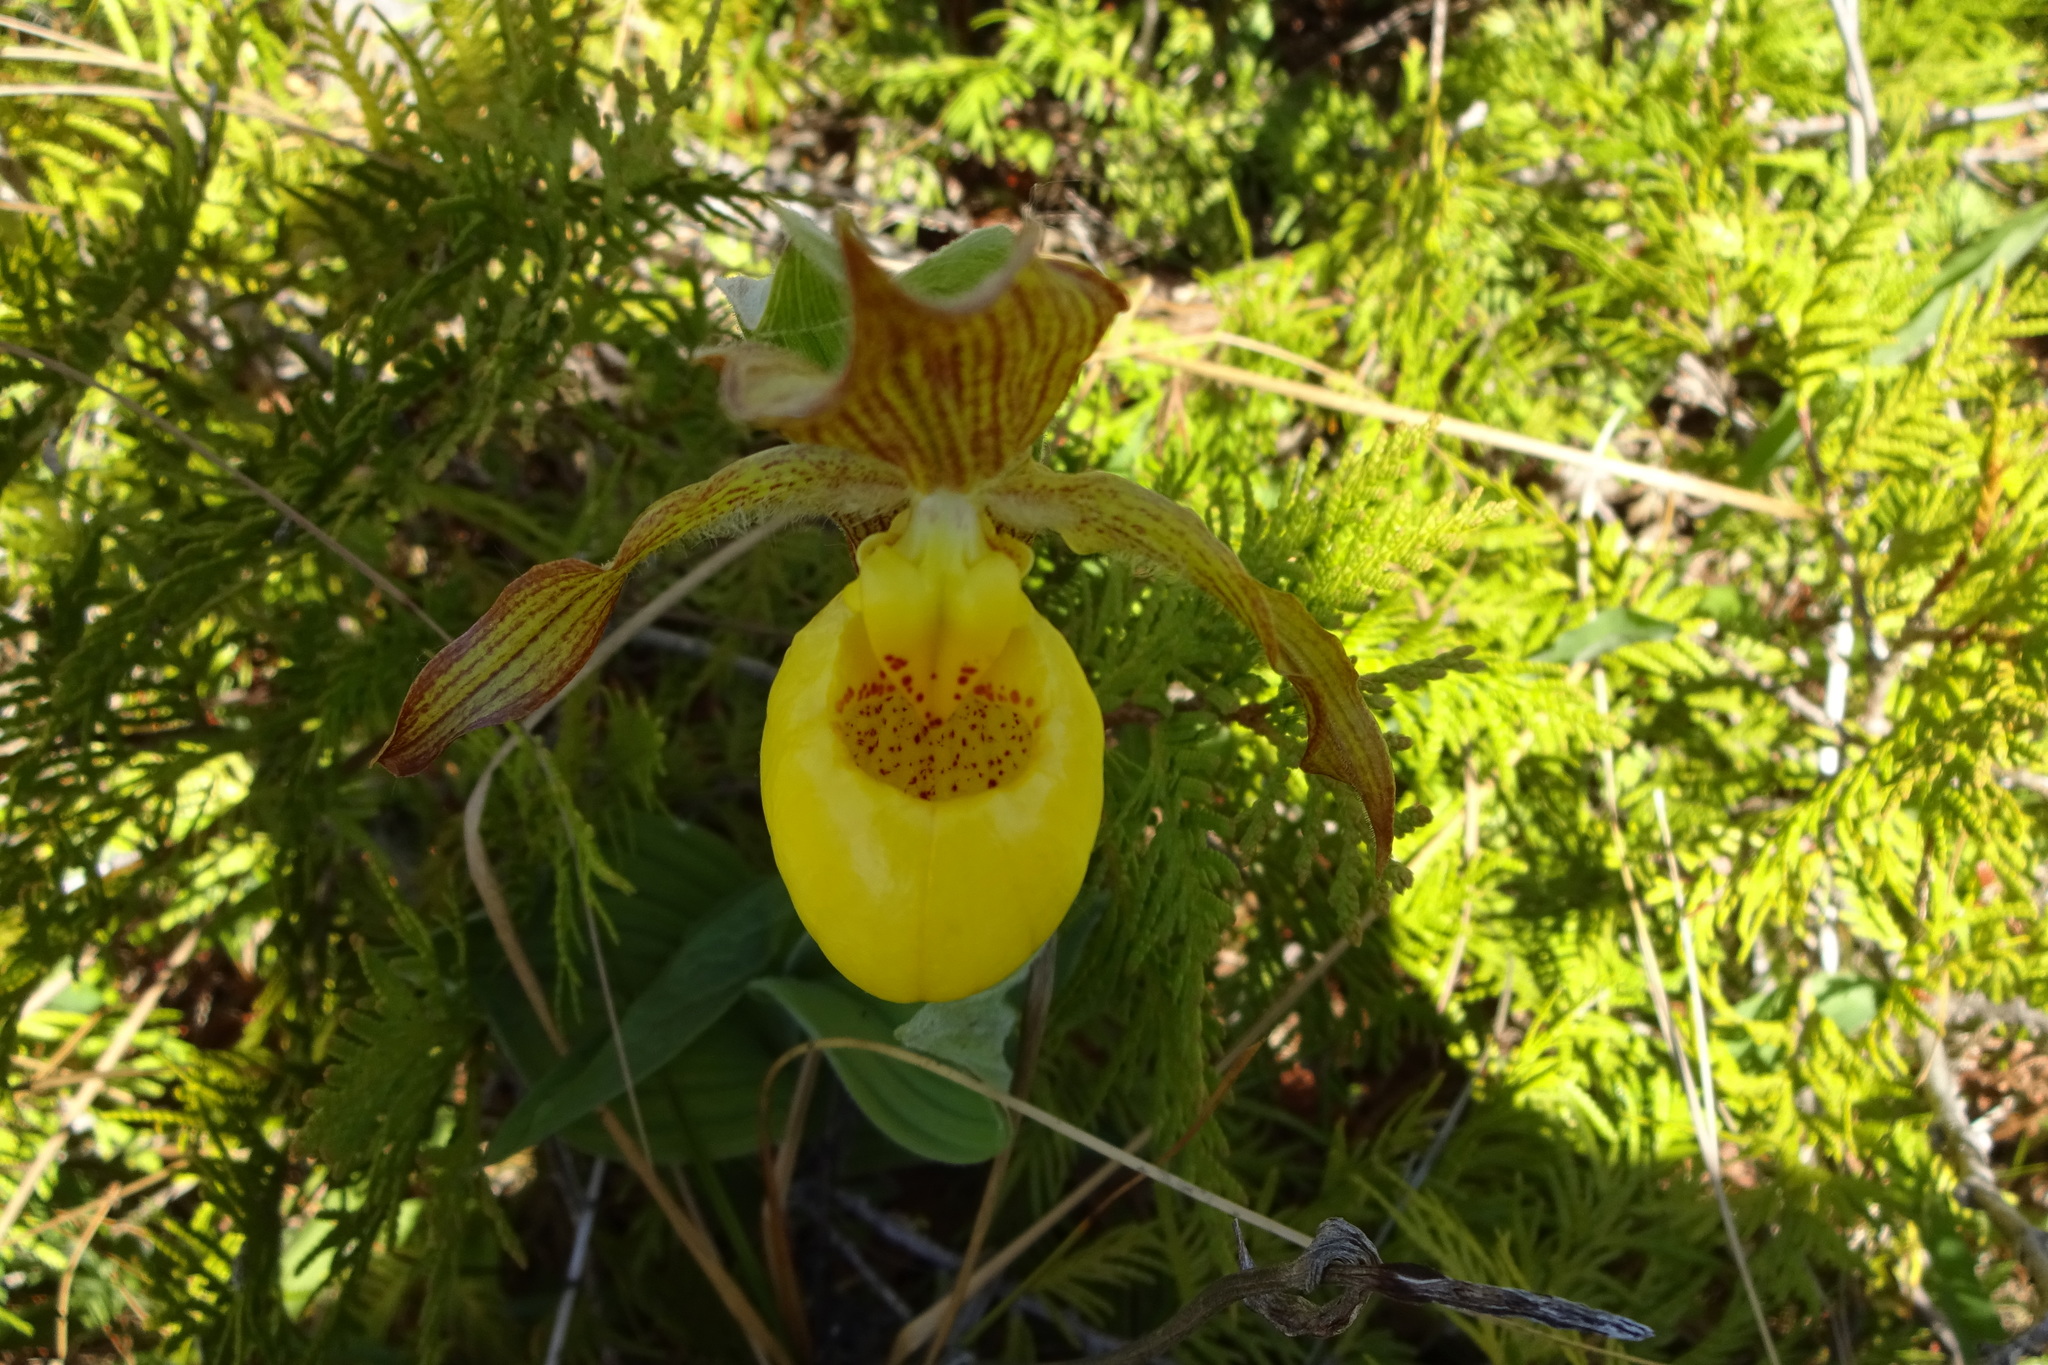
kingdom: Plantae
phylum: Tracheophyta
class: Liliopsida
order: Asparagales
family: Orchidaceae
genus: Cypripedium
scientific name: Cypripedium parviflorum
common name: American yellow lady's-slipper
